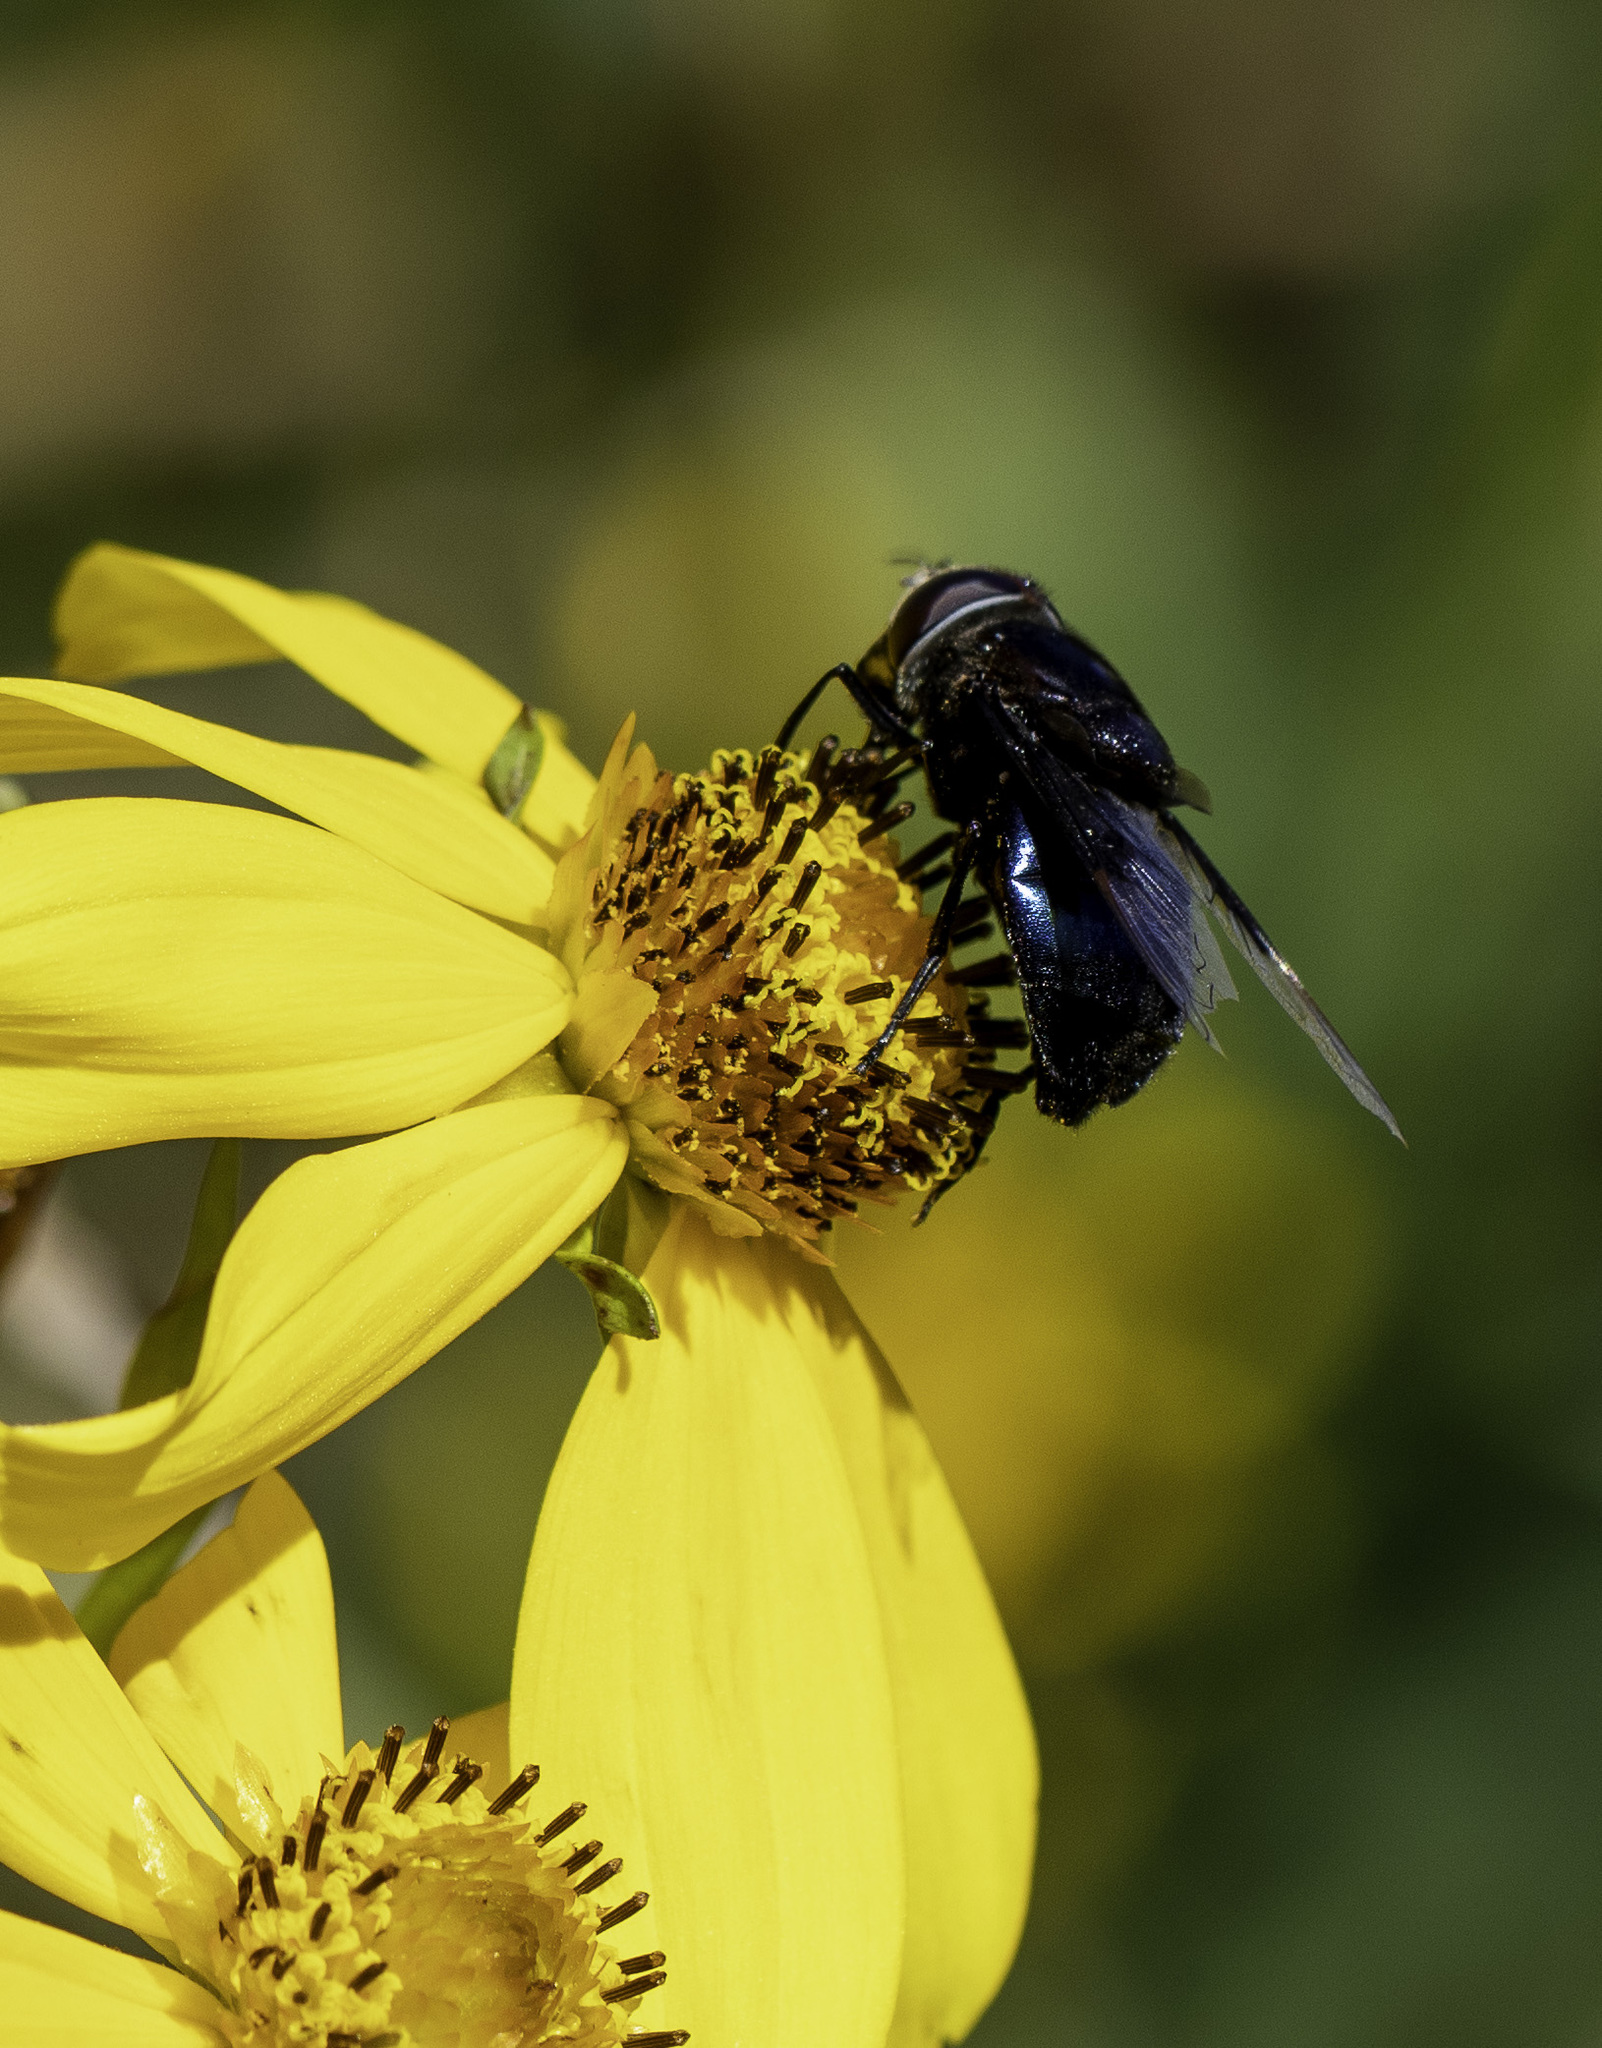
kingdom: Animalia
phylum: Arthropoda
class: Insecta
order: Diptera
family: Syrphidae
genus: Copestylum
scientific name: Copestylum mexicanum
